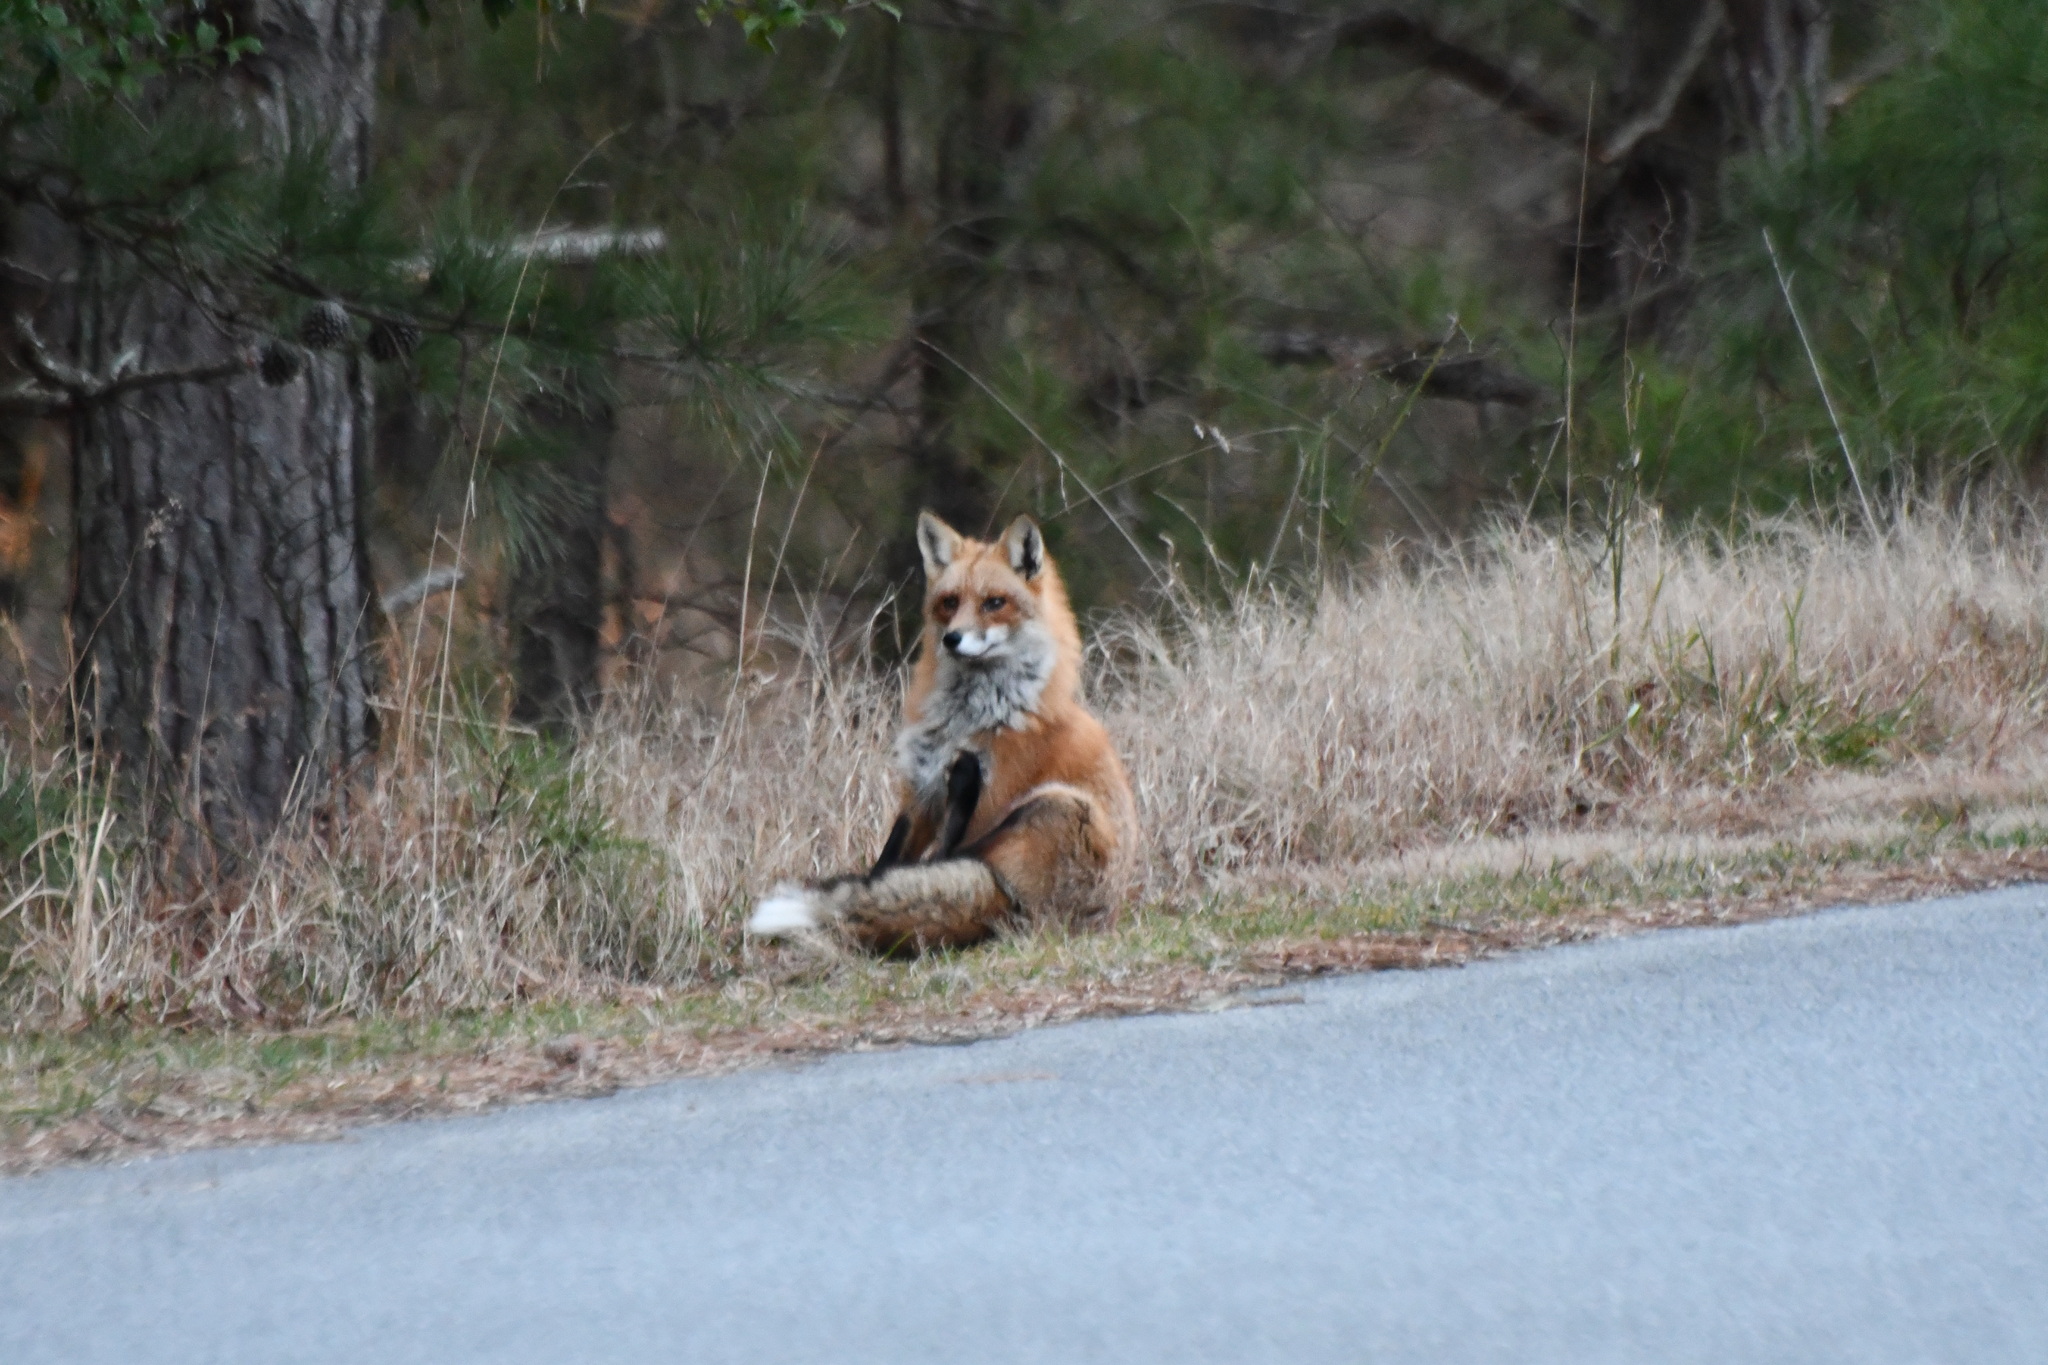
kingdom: Animalia
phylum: Chordata
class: Mammalia
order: Carnivora
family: Canidae
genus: Vulpes
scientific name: Vulpes vulpes
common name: Red fox
